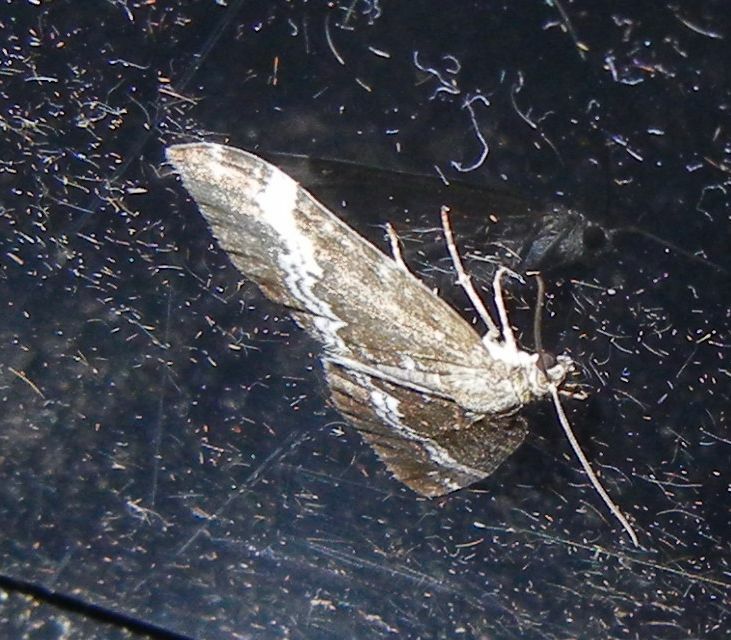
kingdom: Animalia
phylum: Arthropoda
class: Insecta
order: Lepidoptera
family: Geometridae
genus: Perizoma
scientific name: Perizoma alchemillata
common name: Small rivulet
